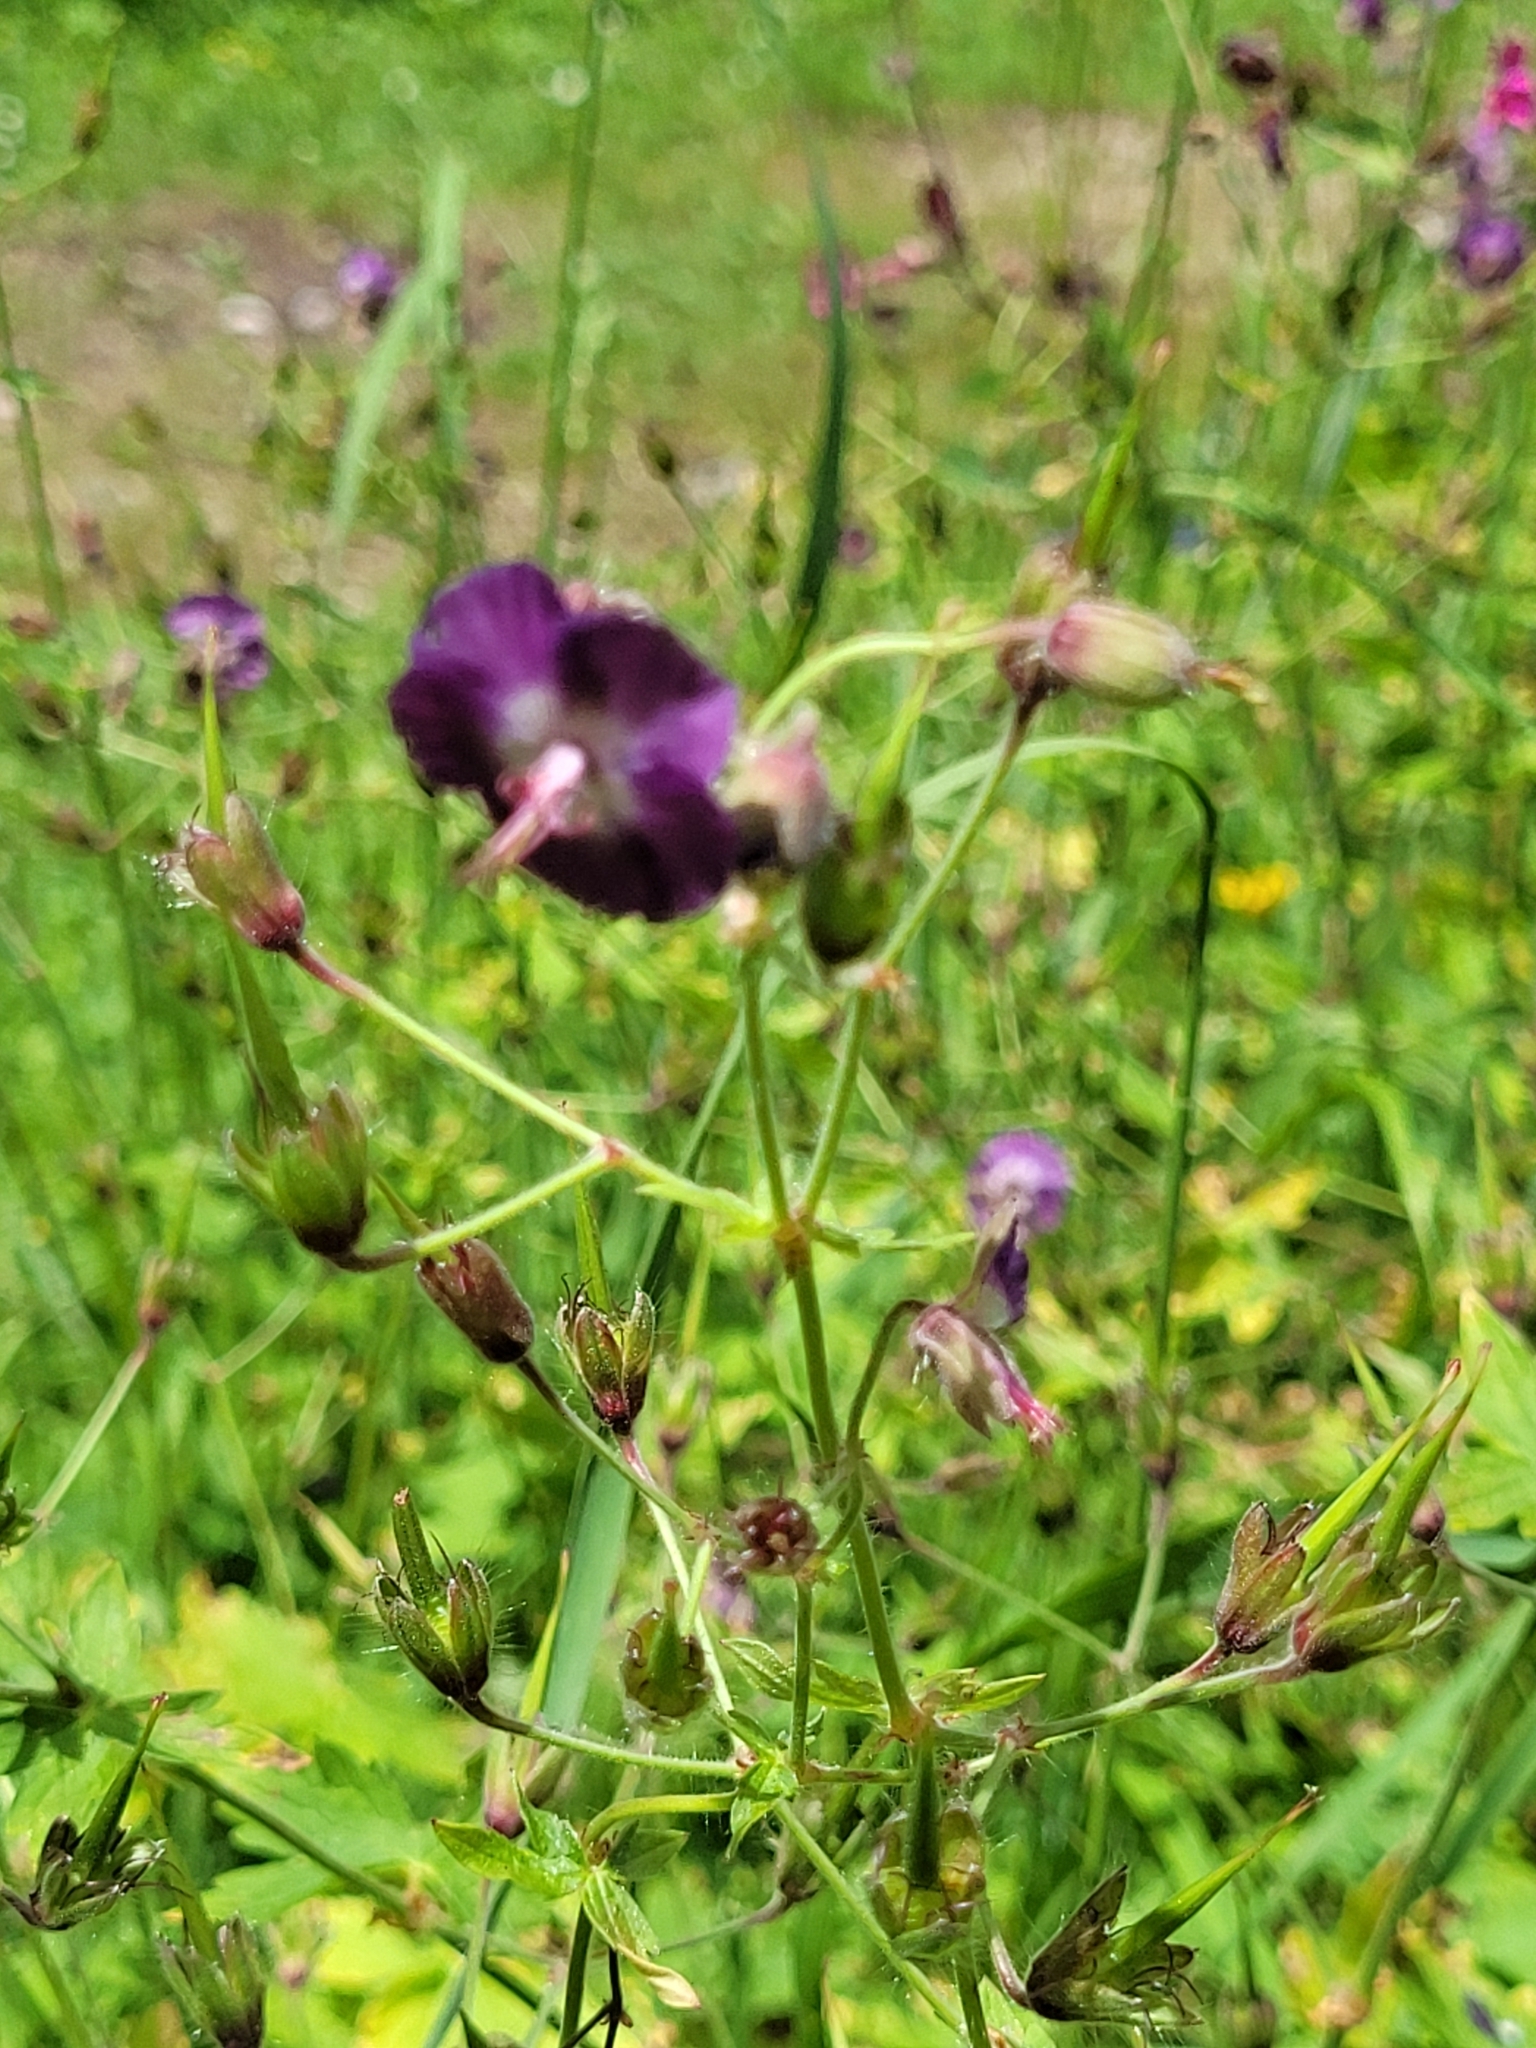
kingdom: Plantae
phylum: Tracheophyta
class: Magnoliopsida
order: Geraniales
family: Geraniaceae
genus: Geranium
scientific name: Geranium phaeum
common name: Dusky crane's-bill
